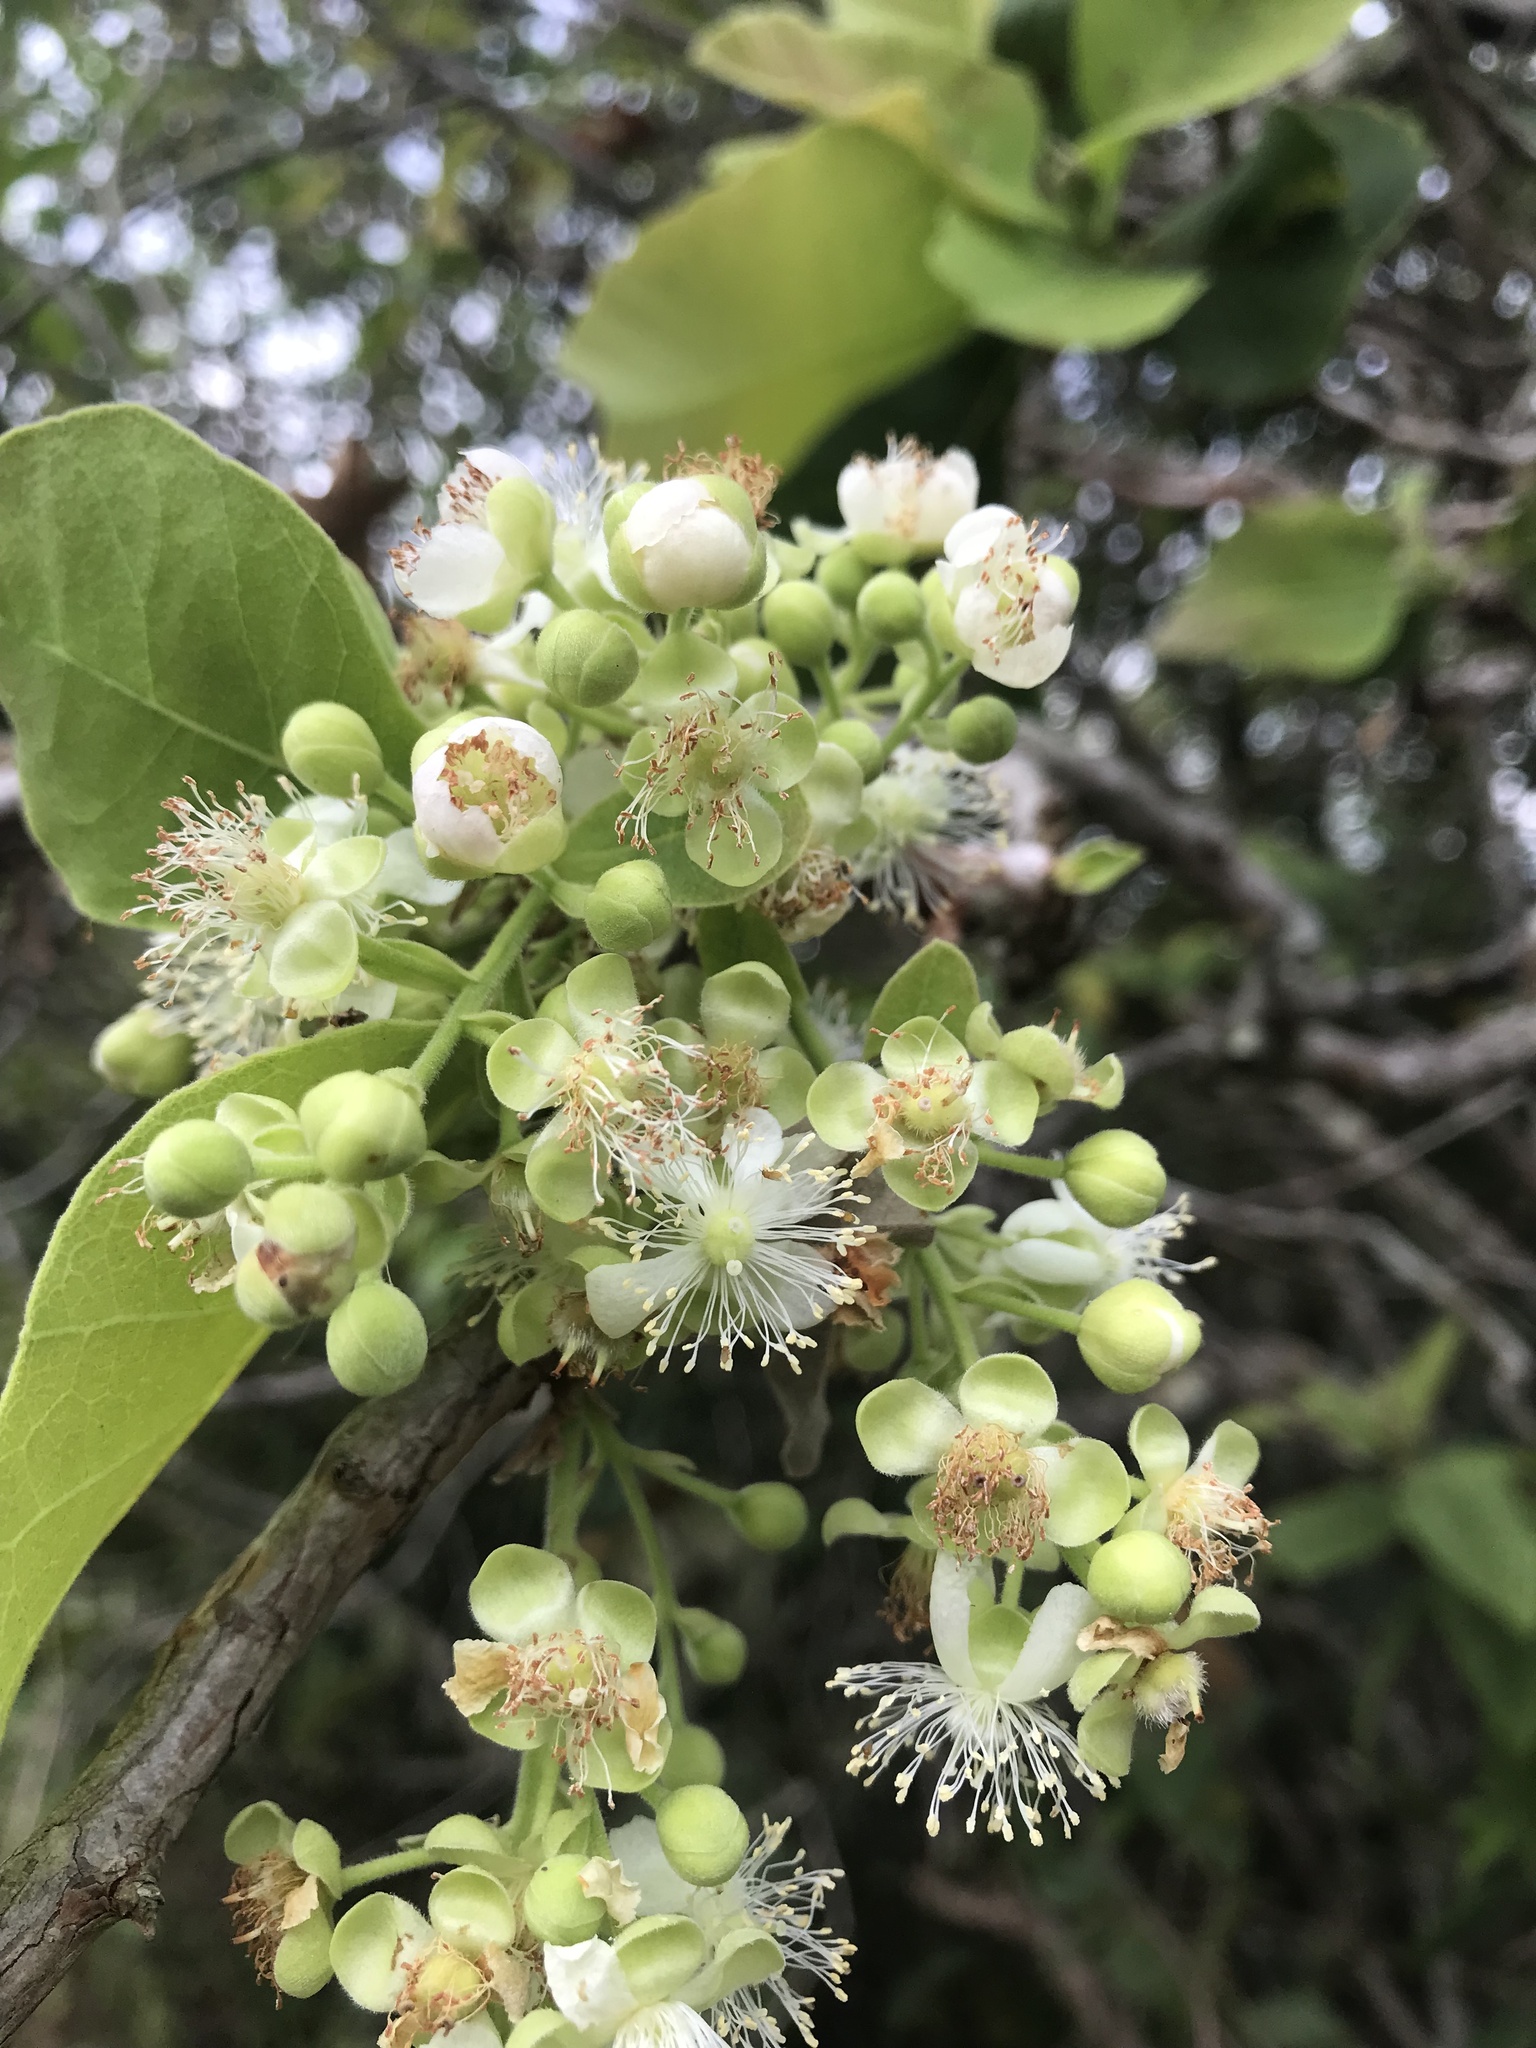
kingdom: Plantae
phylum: Tracheophyta
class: Magnoliopsida
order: Dilleniales
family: Dilleniaceae
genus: Curatella
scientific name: Curatella americana
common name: Sandpaper tree
